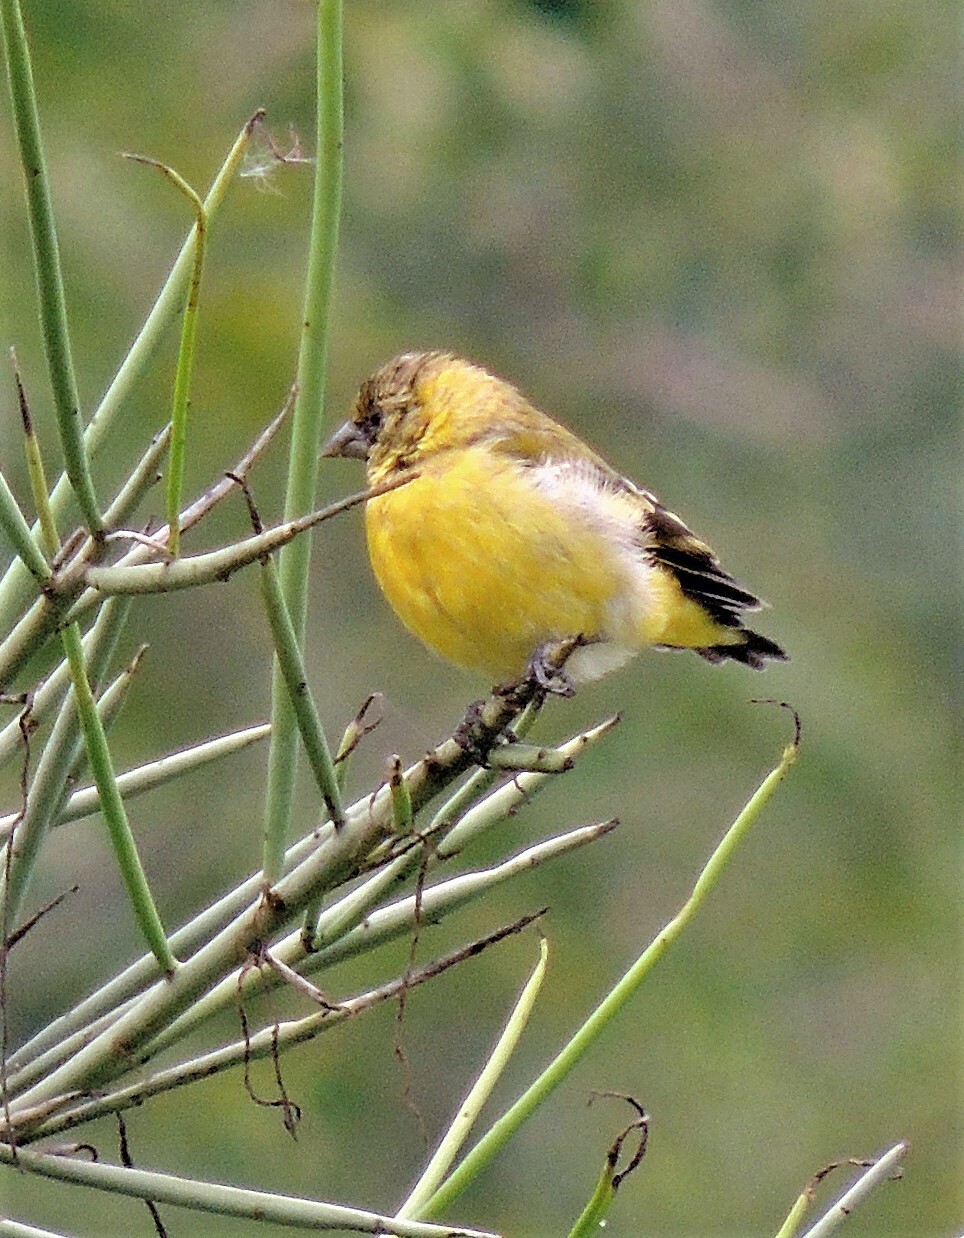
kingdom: Animalia
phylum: Chordata
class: Aves
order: Passeriformes
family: Fringillidae
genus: Spinus
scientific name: Spinus magellanicus
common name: Hooded siskin
